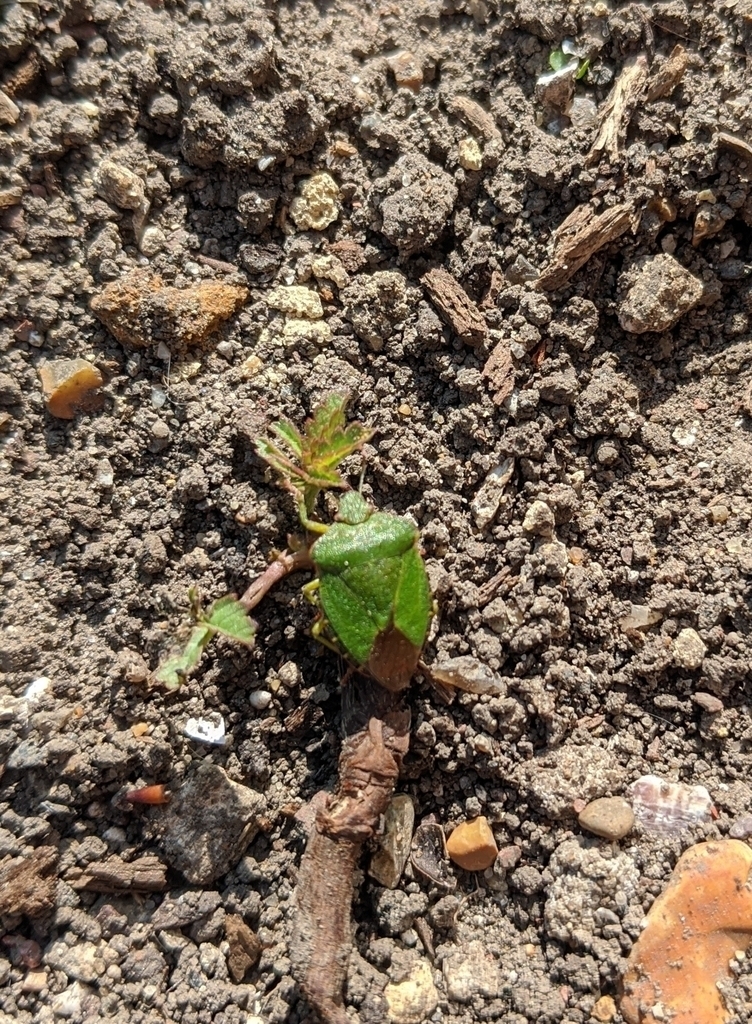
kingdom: Animalia
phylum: Arthropoda
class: Insecta
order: Hemiptera
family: Pentatomidae
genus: Palomena
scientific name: Palomena prasina
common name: Green shieldbug
